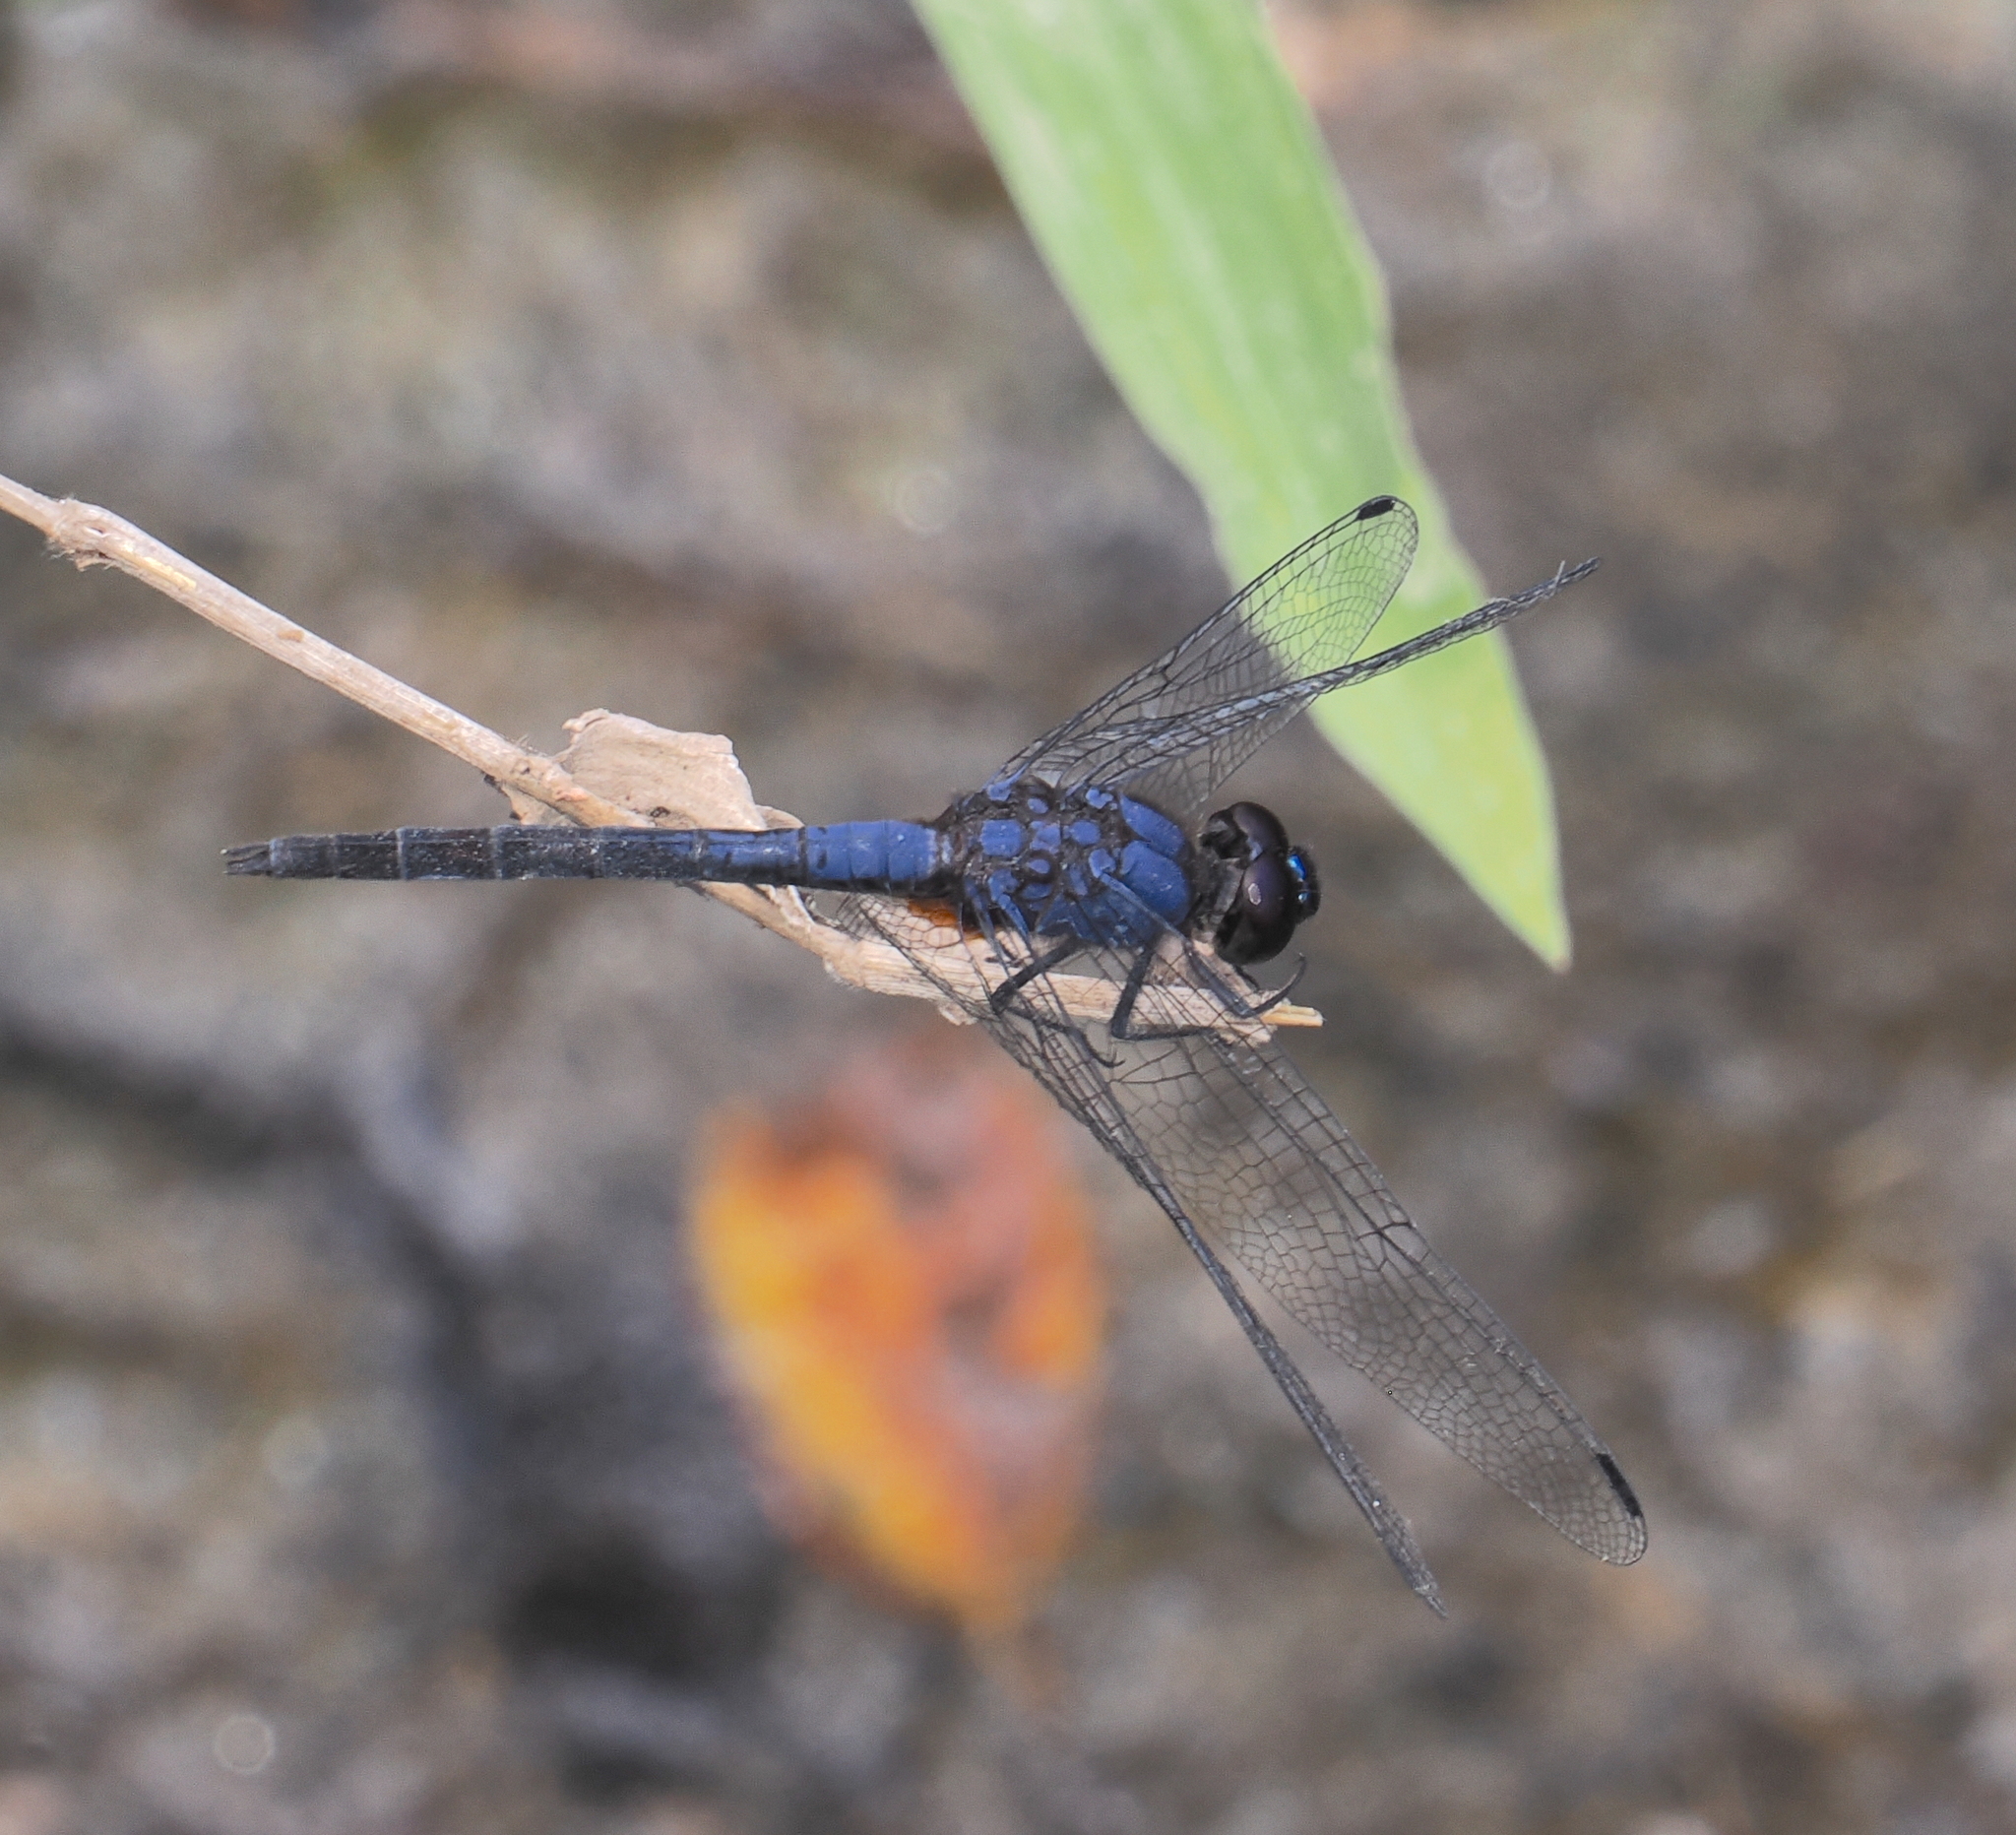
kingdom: Animalia
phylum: Arthropoda
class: Insecta
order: Odonata
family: Libellulidae
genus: Trithemis
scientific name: Trithemis festiva
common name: Indigo dropwing
